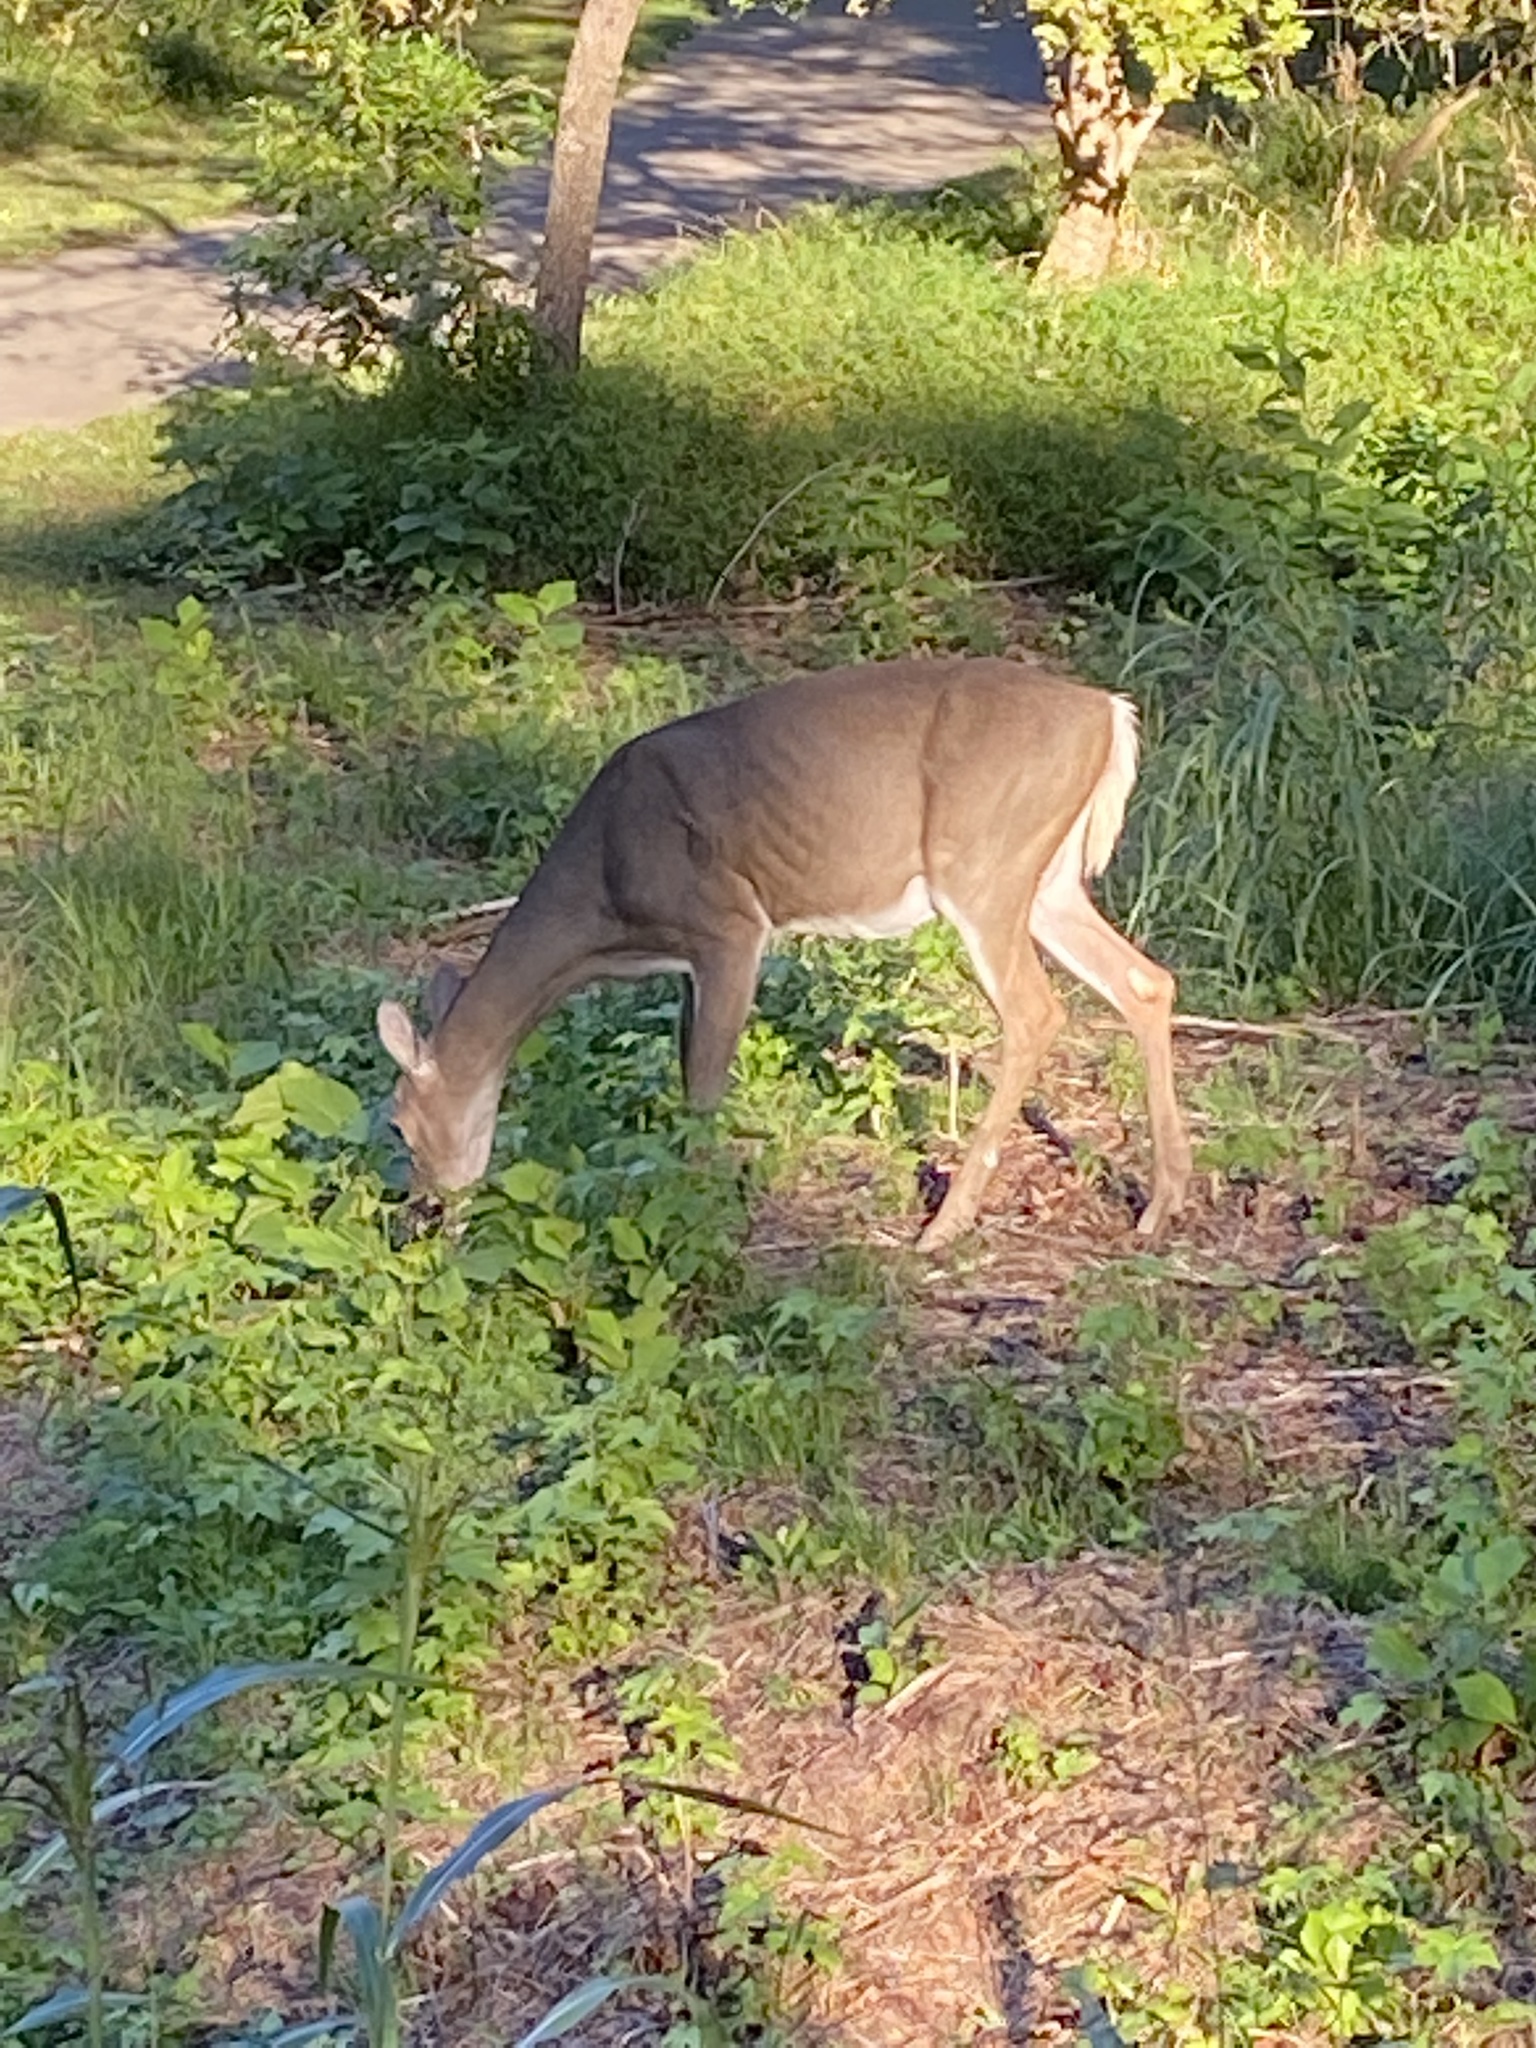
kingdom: Animalia
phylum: Chordata
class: Mammalia
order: Artiodactyla
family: Cervidae
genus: Odocoileus
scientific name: Odocoileus virginianus
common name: White-tailed deer
